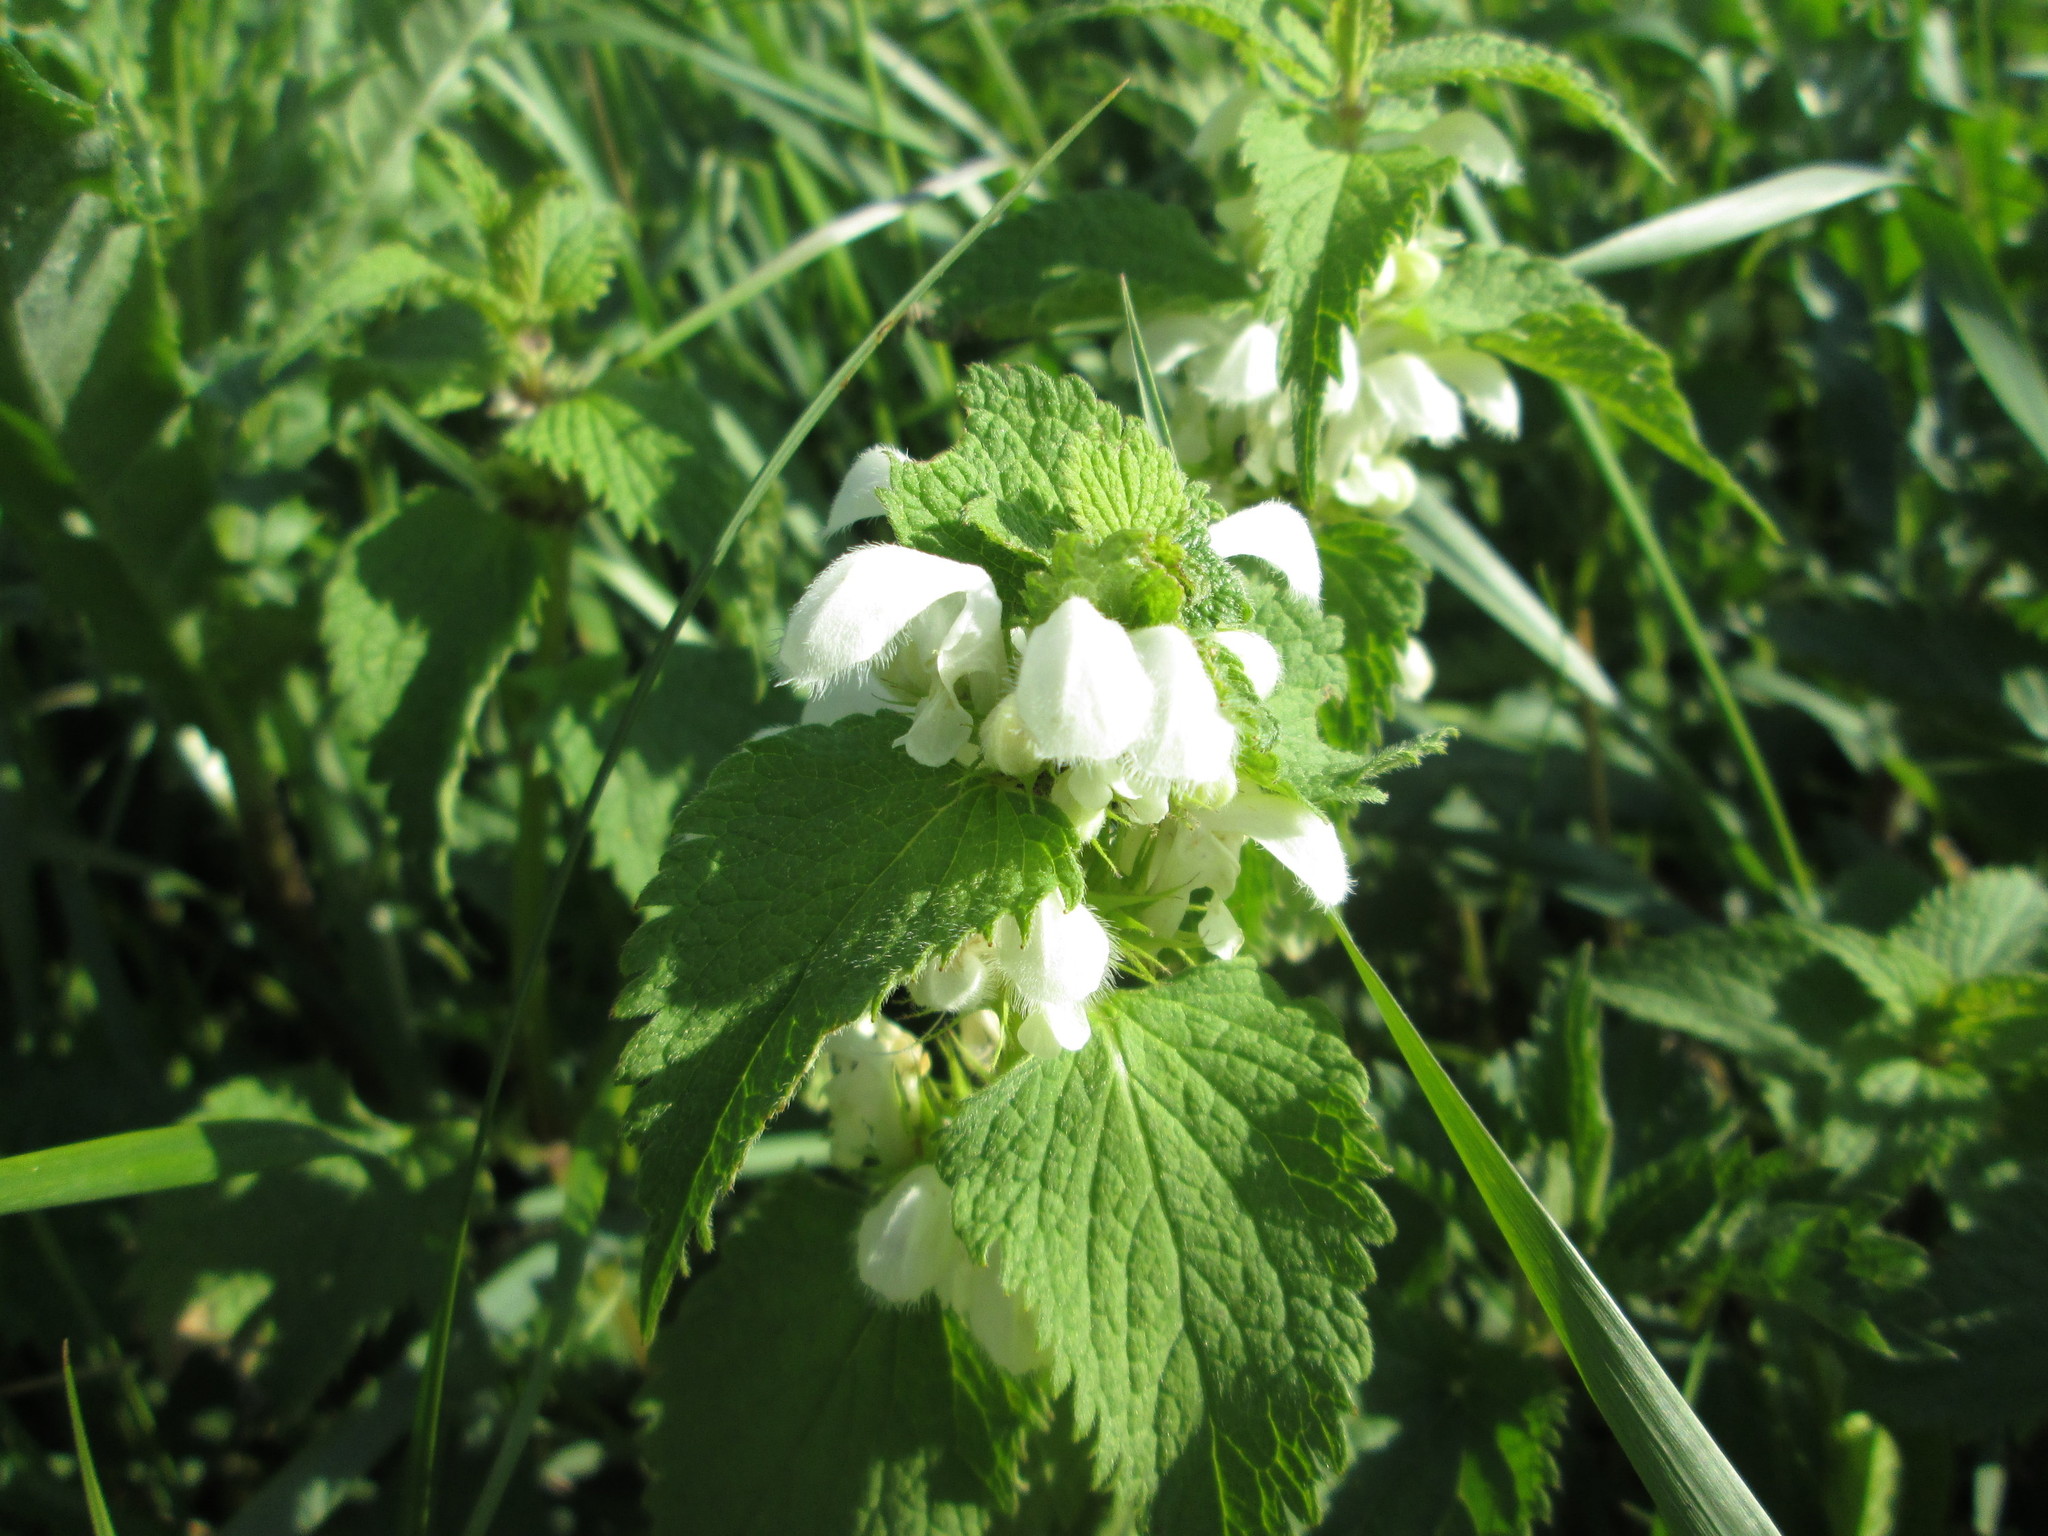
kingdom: Plantae
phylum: Tracheophyta
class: Magnoliopsida
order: Lamiales
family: Lamiaceae
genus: Lamium
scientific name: Lamium album
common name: White dead-nettle
